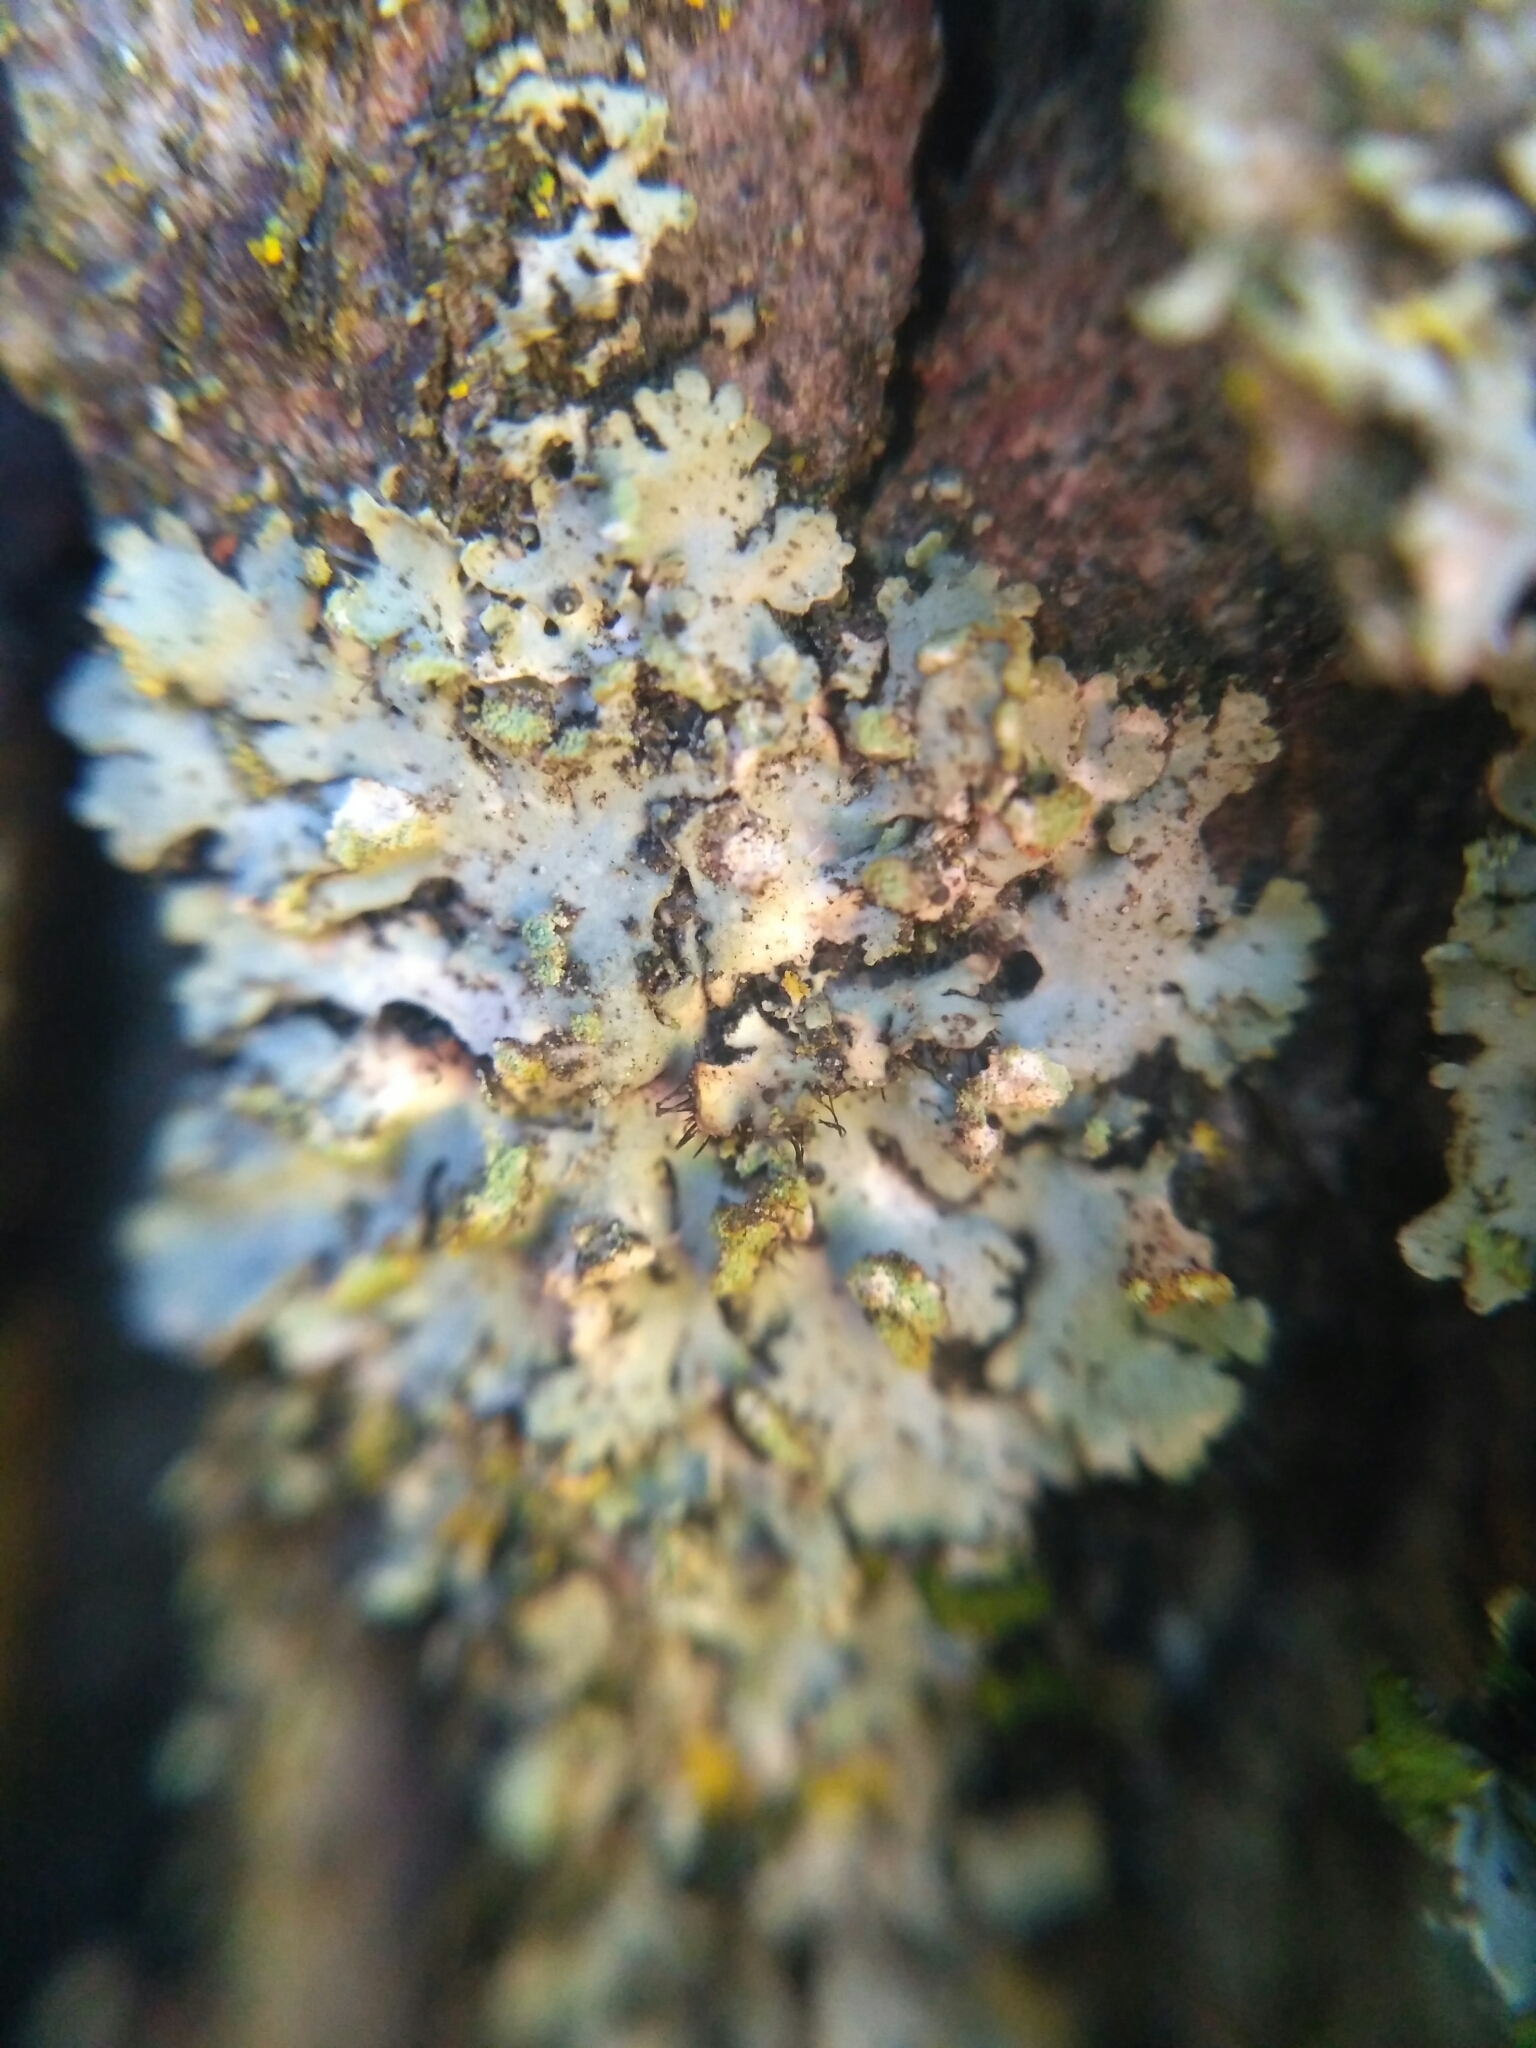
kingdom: Fungi
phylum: Ascomycota
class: Lecanoromycetes
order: Caliciales
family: Physciaceae
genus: Phaeophyscia
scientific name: Phaeophyscia endophoenicea
